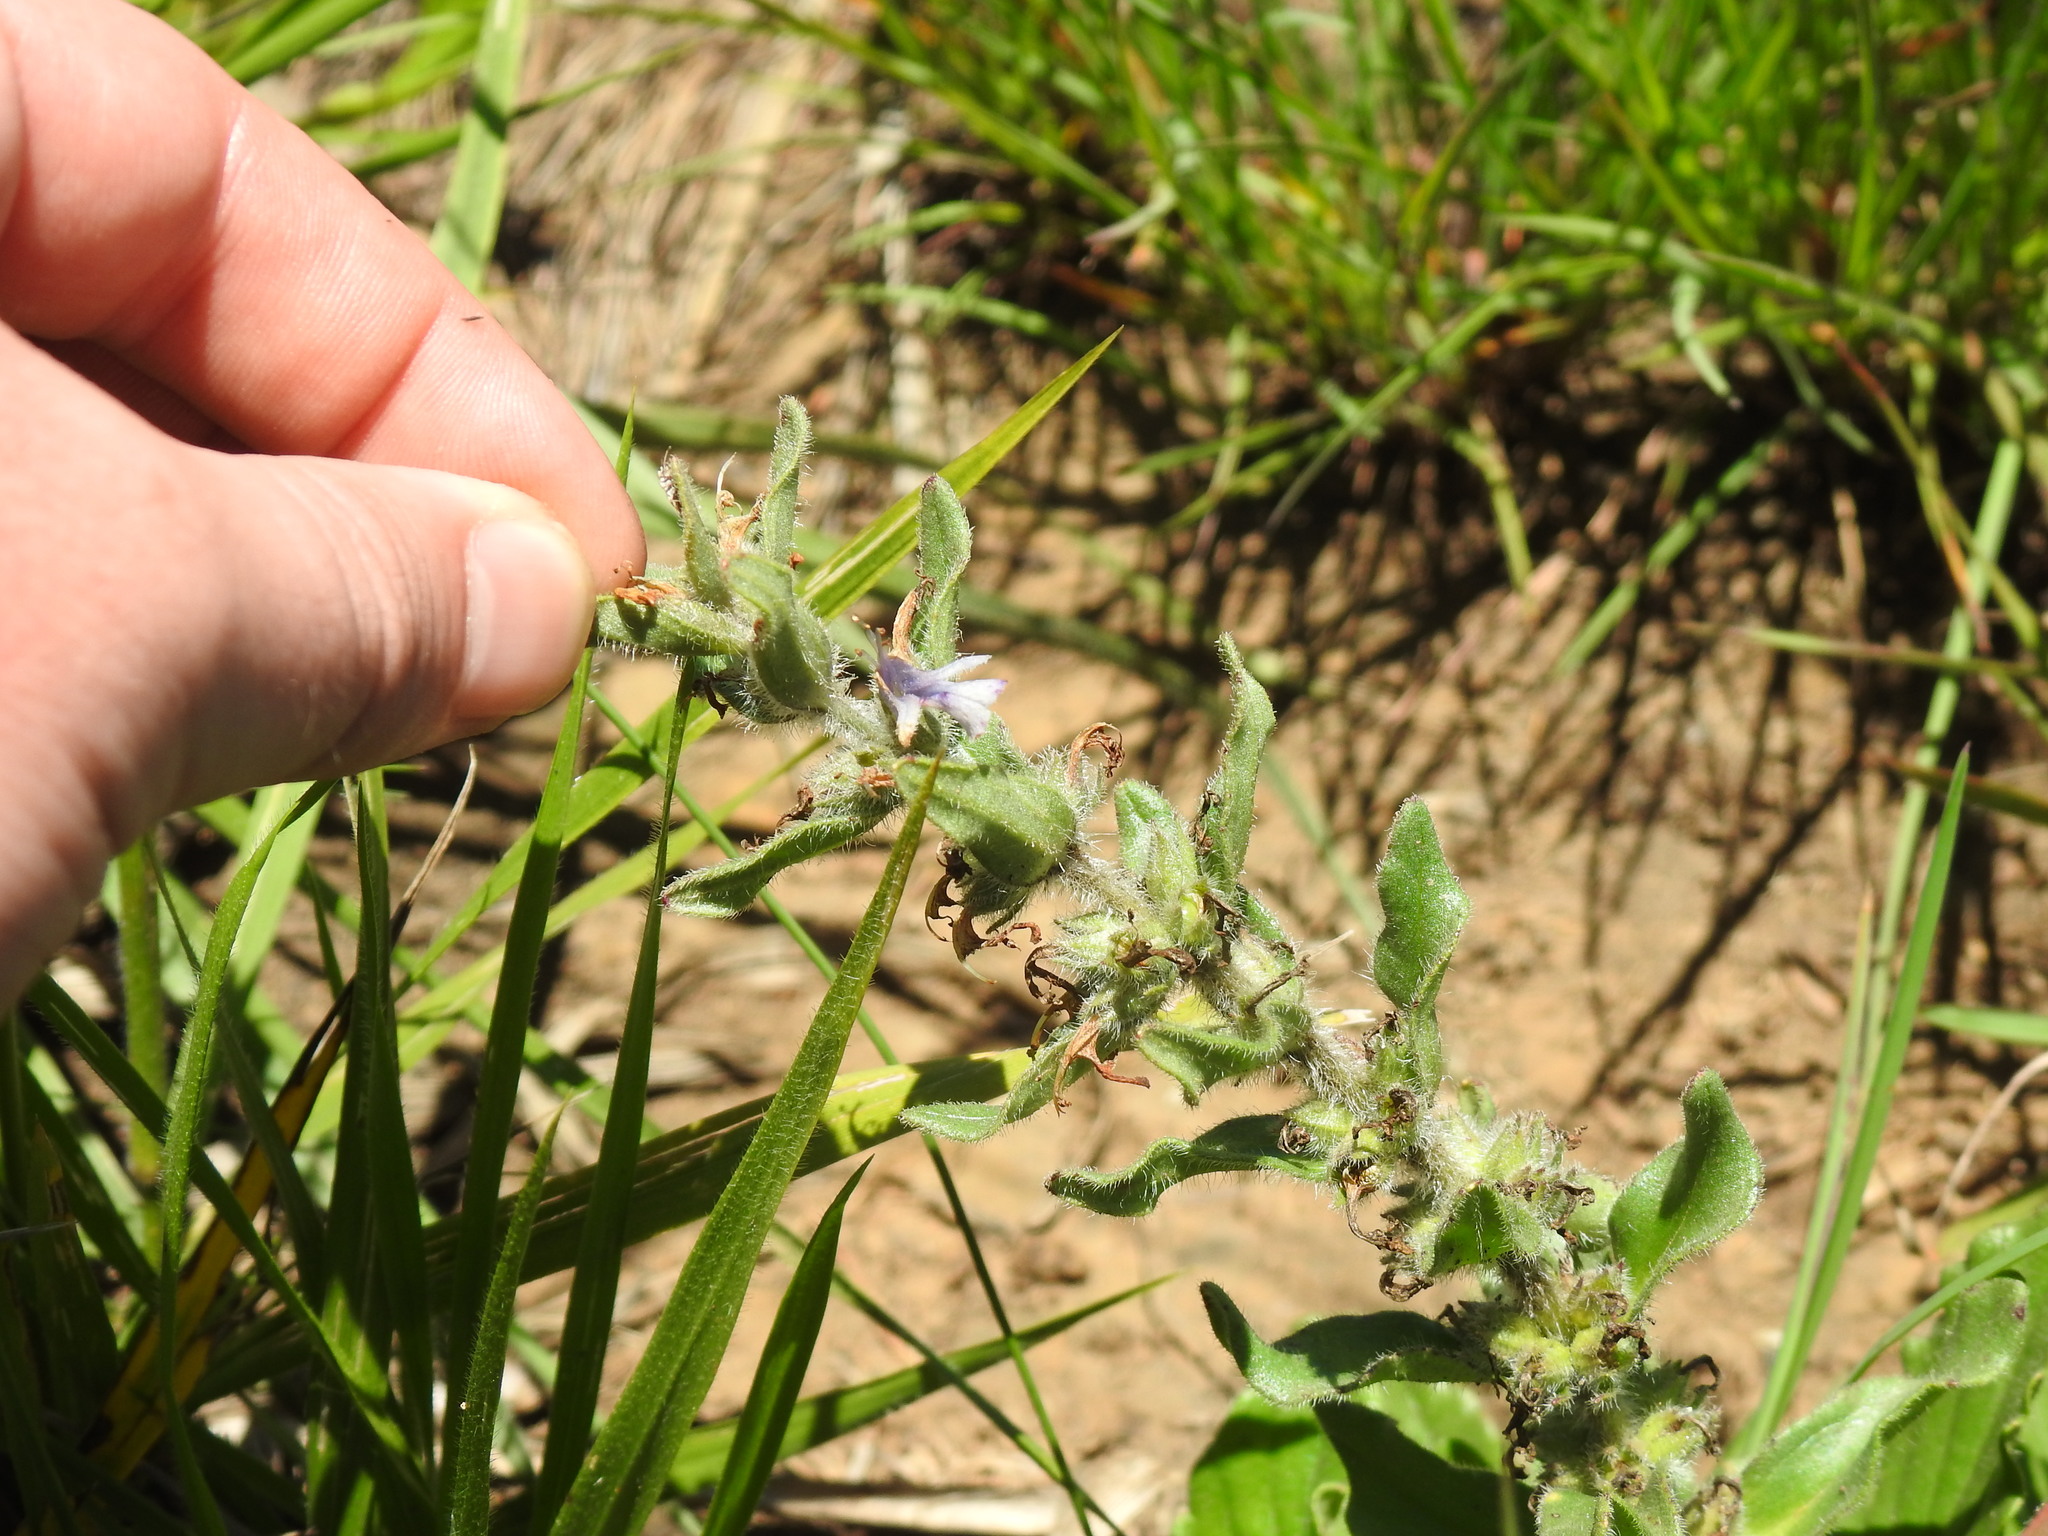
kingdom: Plantae
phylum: Tracheophyta
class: Magnoliopsida
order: Lamiales
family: Lamiaceae
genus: Ajuga
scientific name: Ajuga ophrydis
